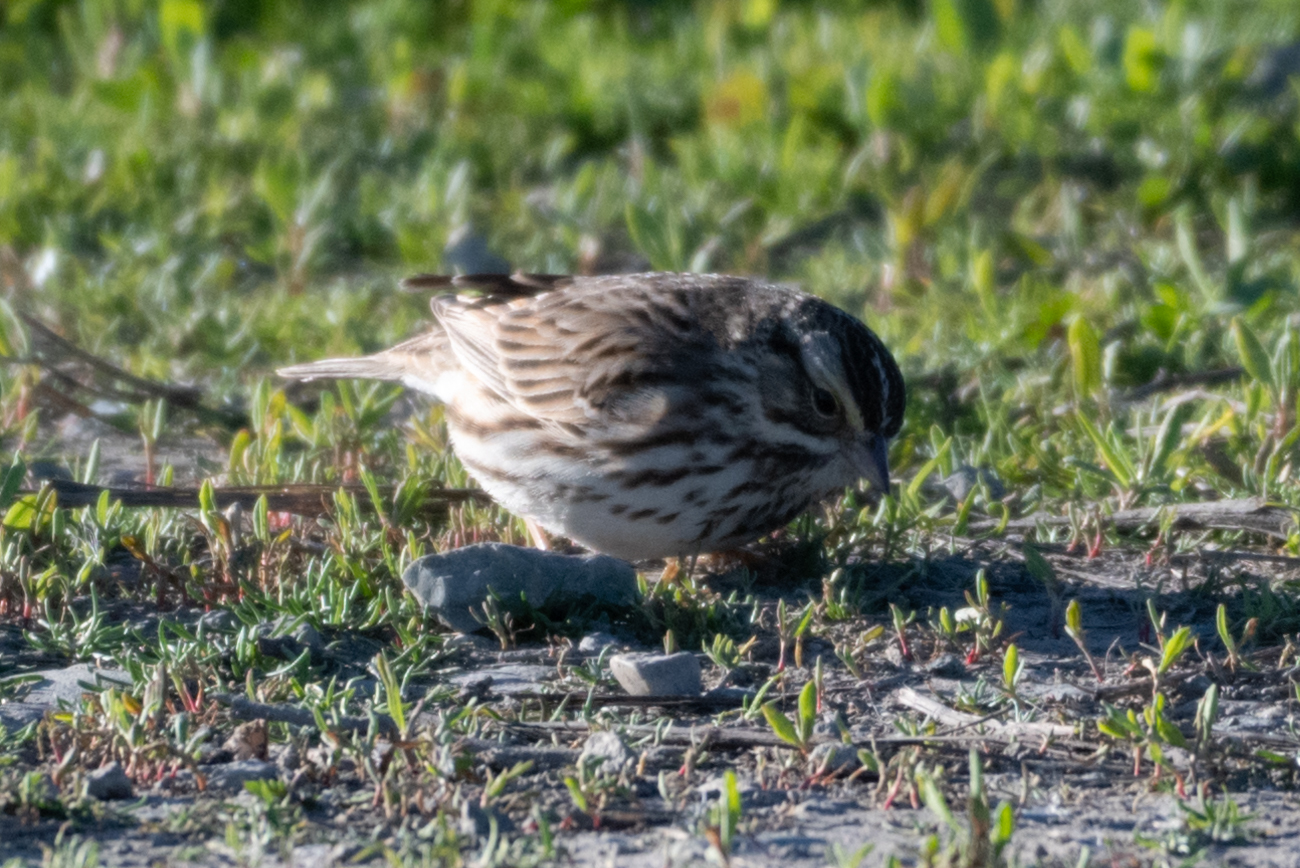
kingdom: Animalia
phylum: Chordata
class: Aves
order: Passeriformes
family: Passerellidae
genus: Passerculus
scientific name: Passerculus sandwichensis
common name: Savannah sparrow
